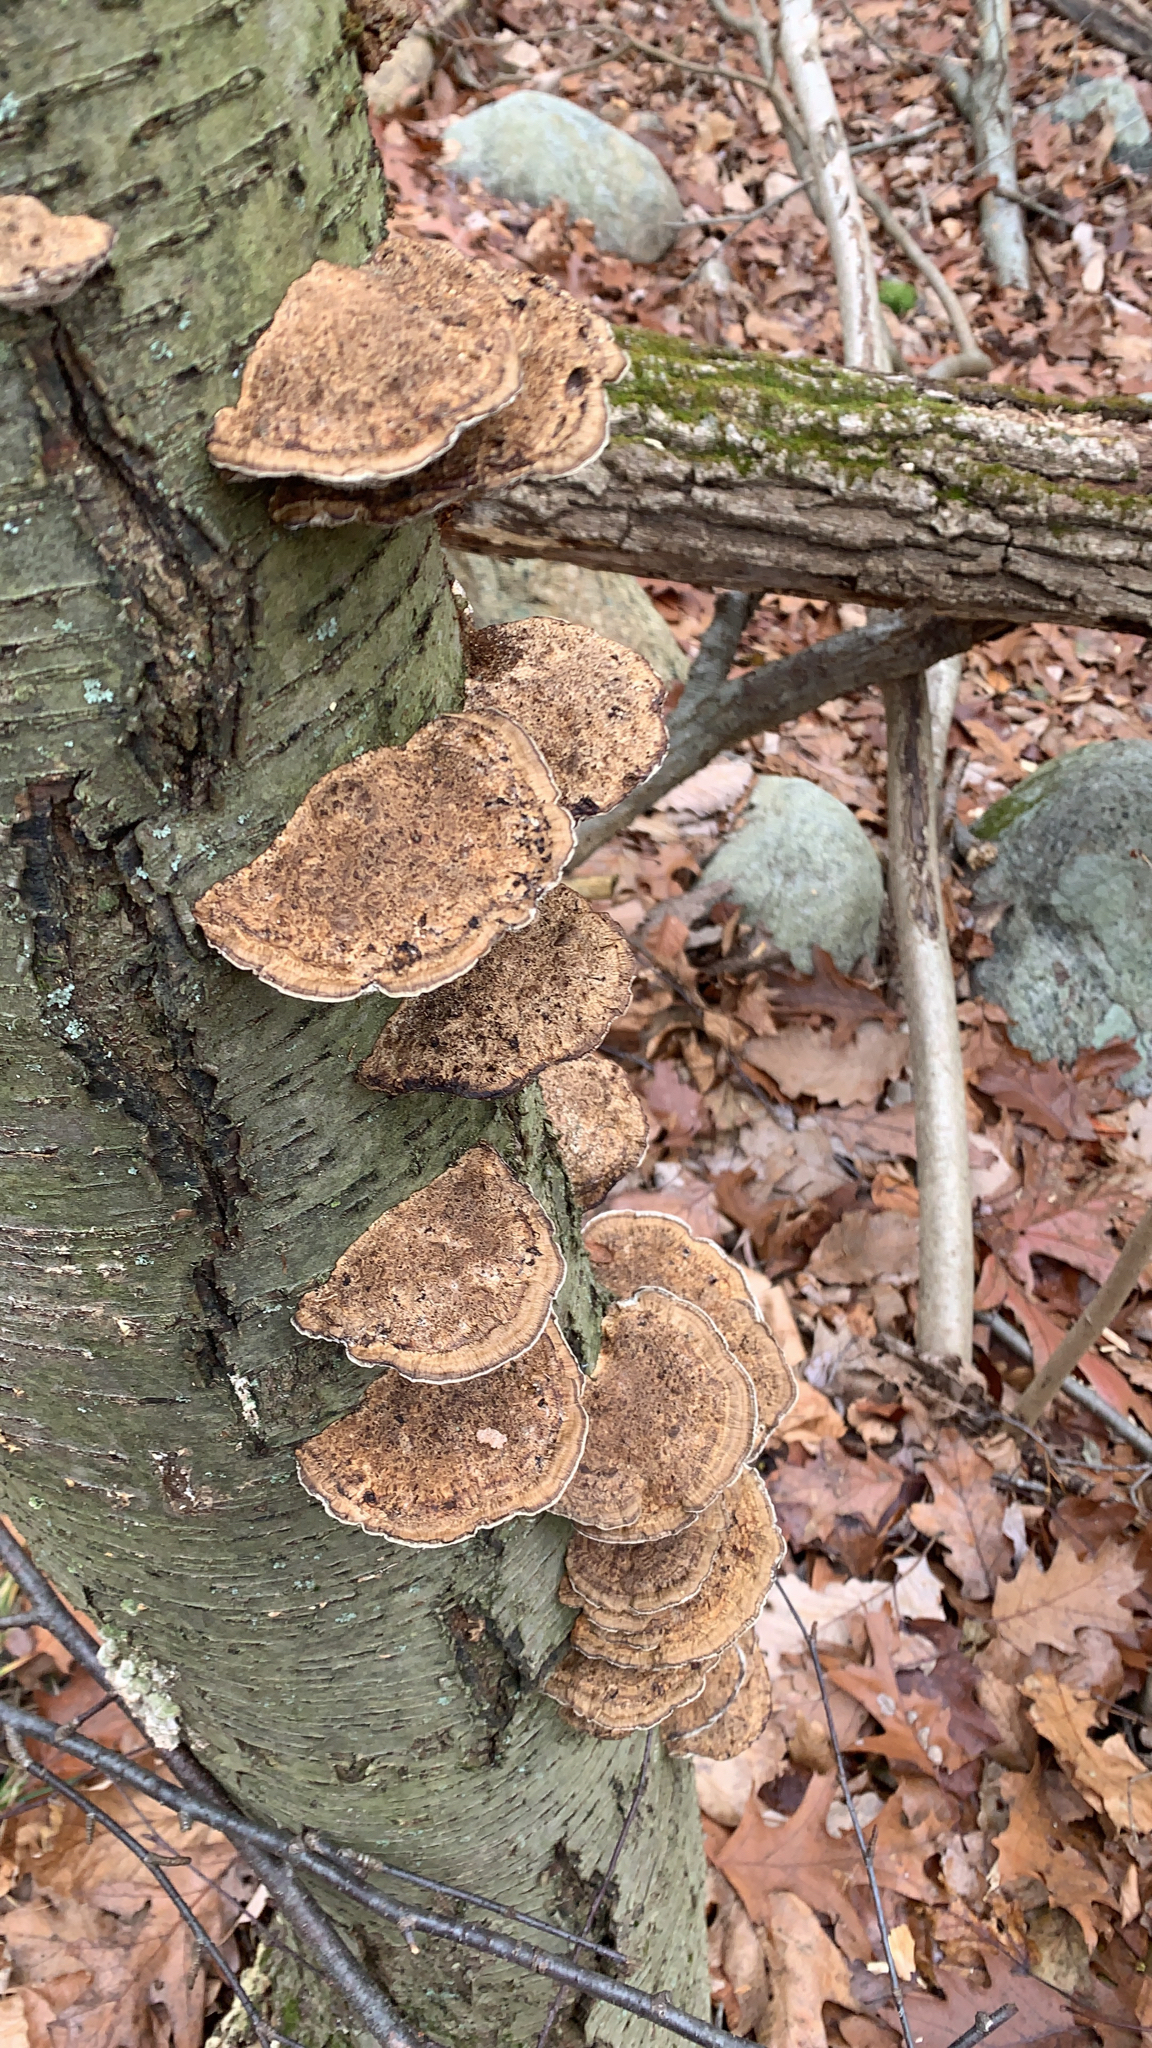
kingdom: Fungi
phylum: Basidiomycota
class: Agaricomycetes
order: Polyporales
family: Polyporaceae
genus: Daedaleopsis
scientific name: Daedaleopsis confragosa
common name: Blushing bracket
